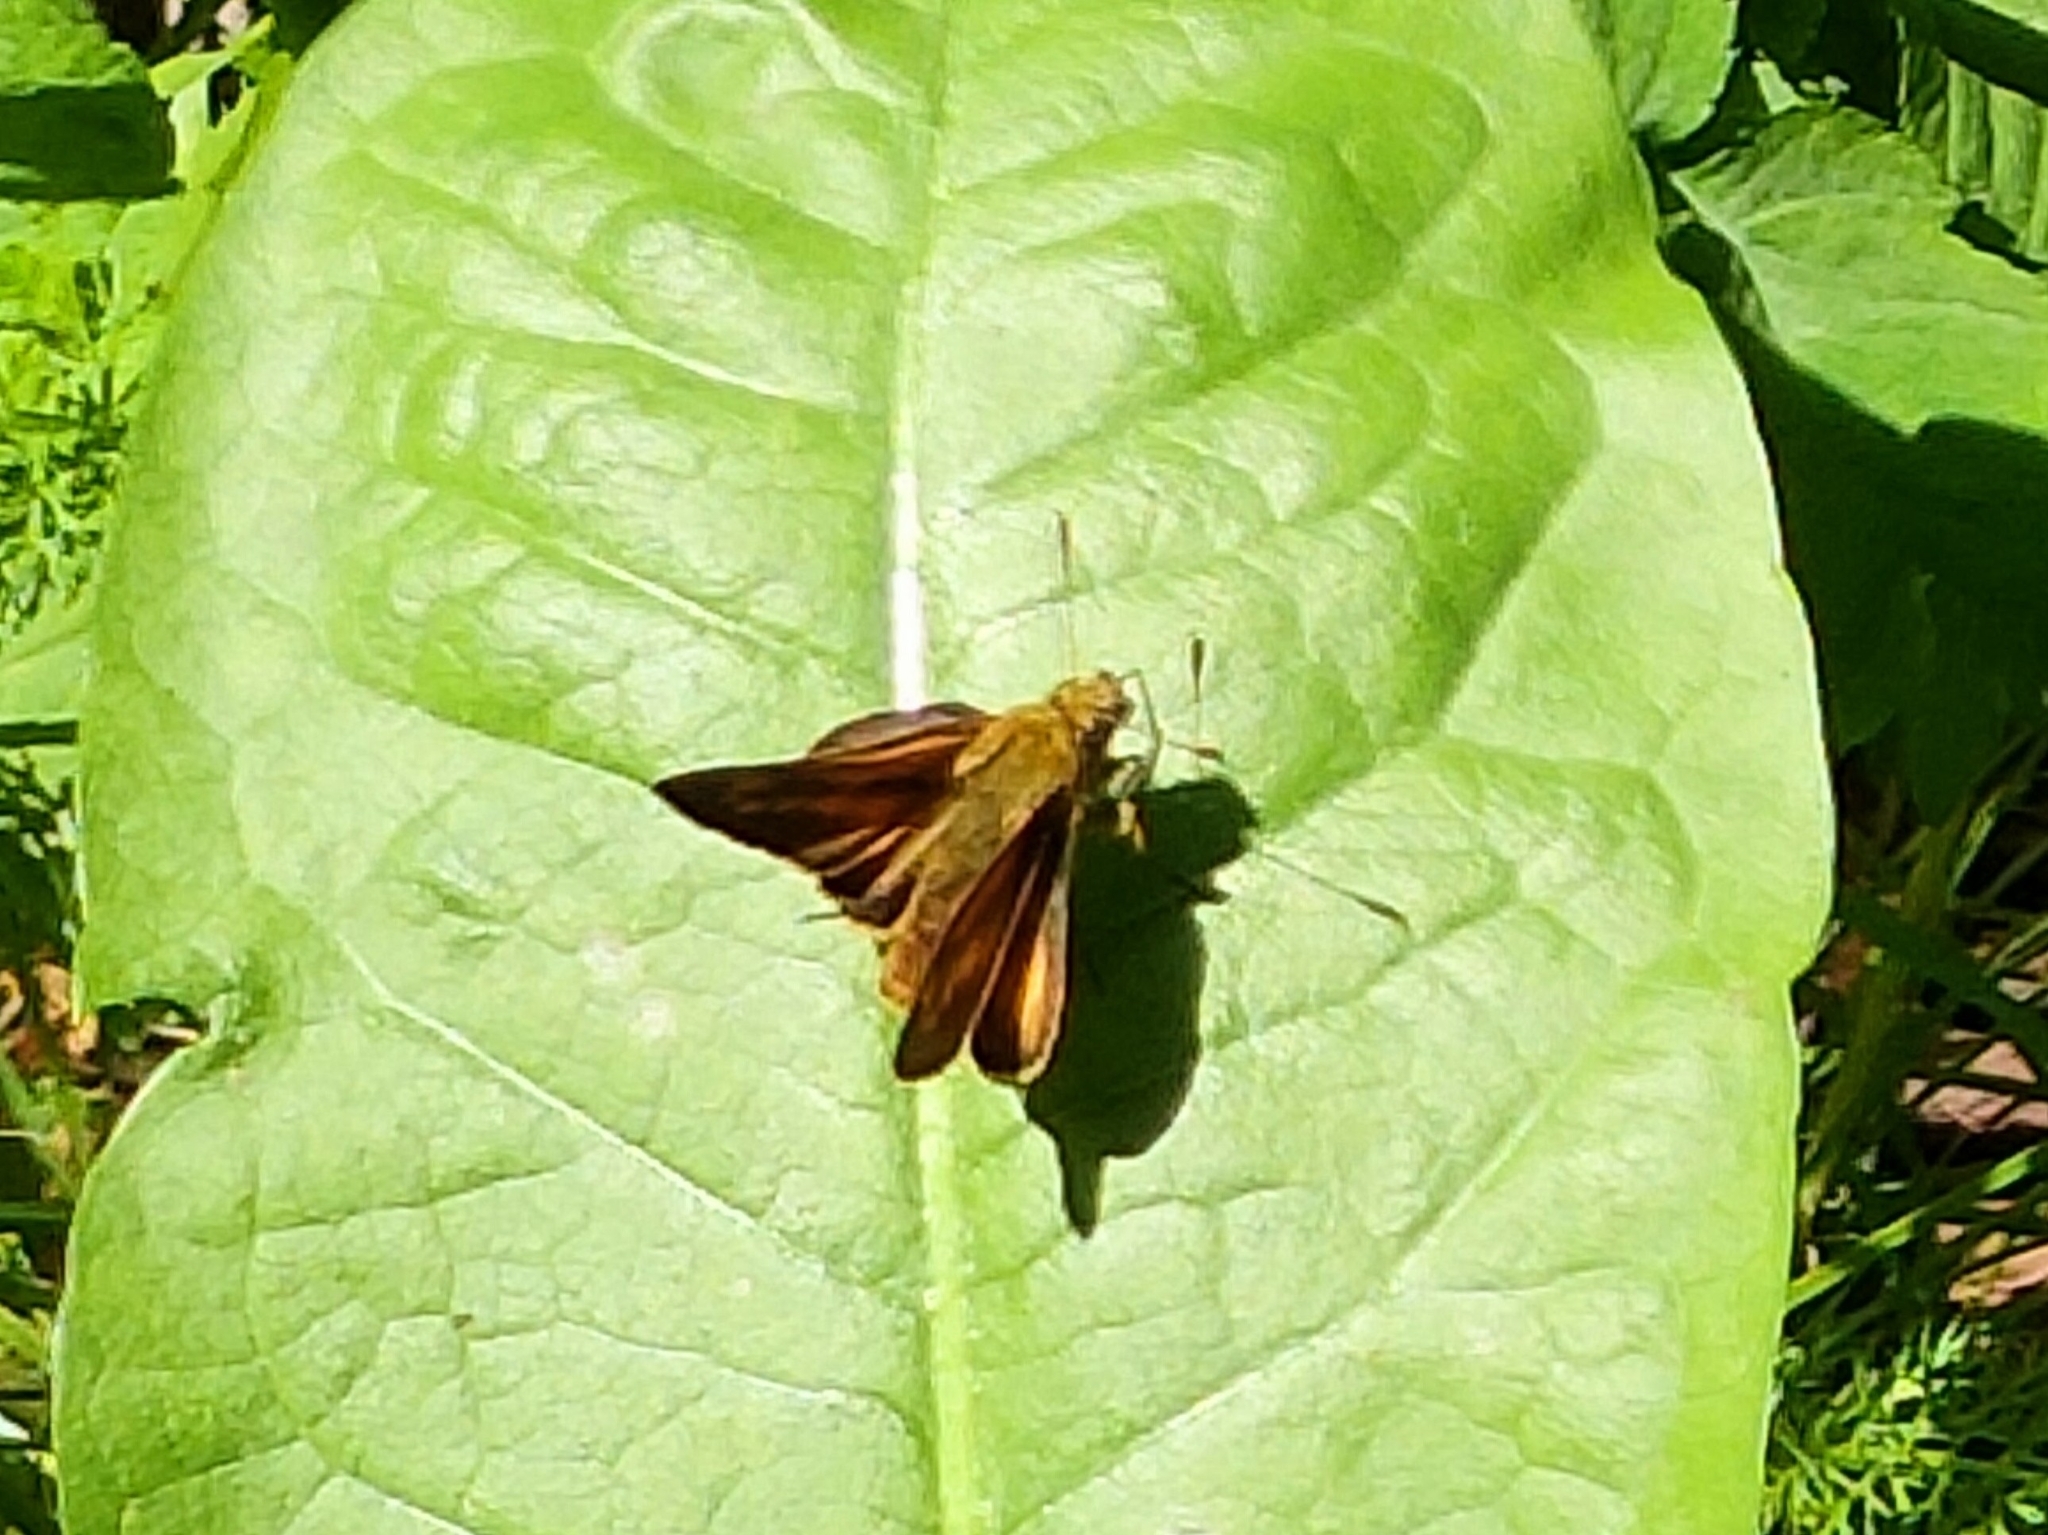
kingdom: Animalia
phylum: Arthropoda
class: Insecta
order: Lepidoptera
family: Hesperiidae
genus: Ochlodes
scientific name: Ochlodes venata
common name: Large skipper
